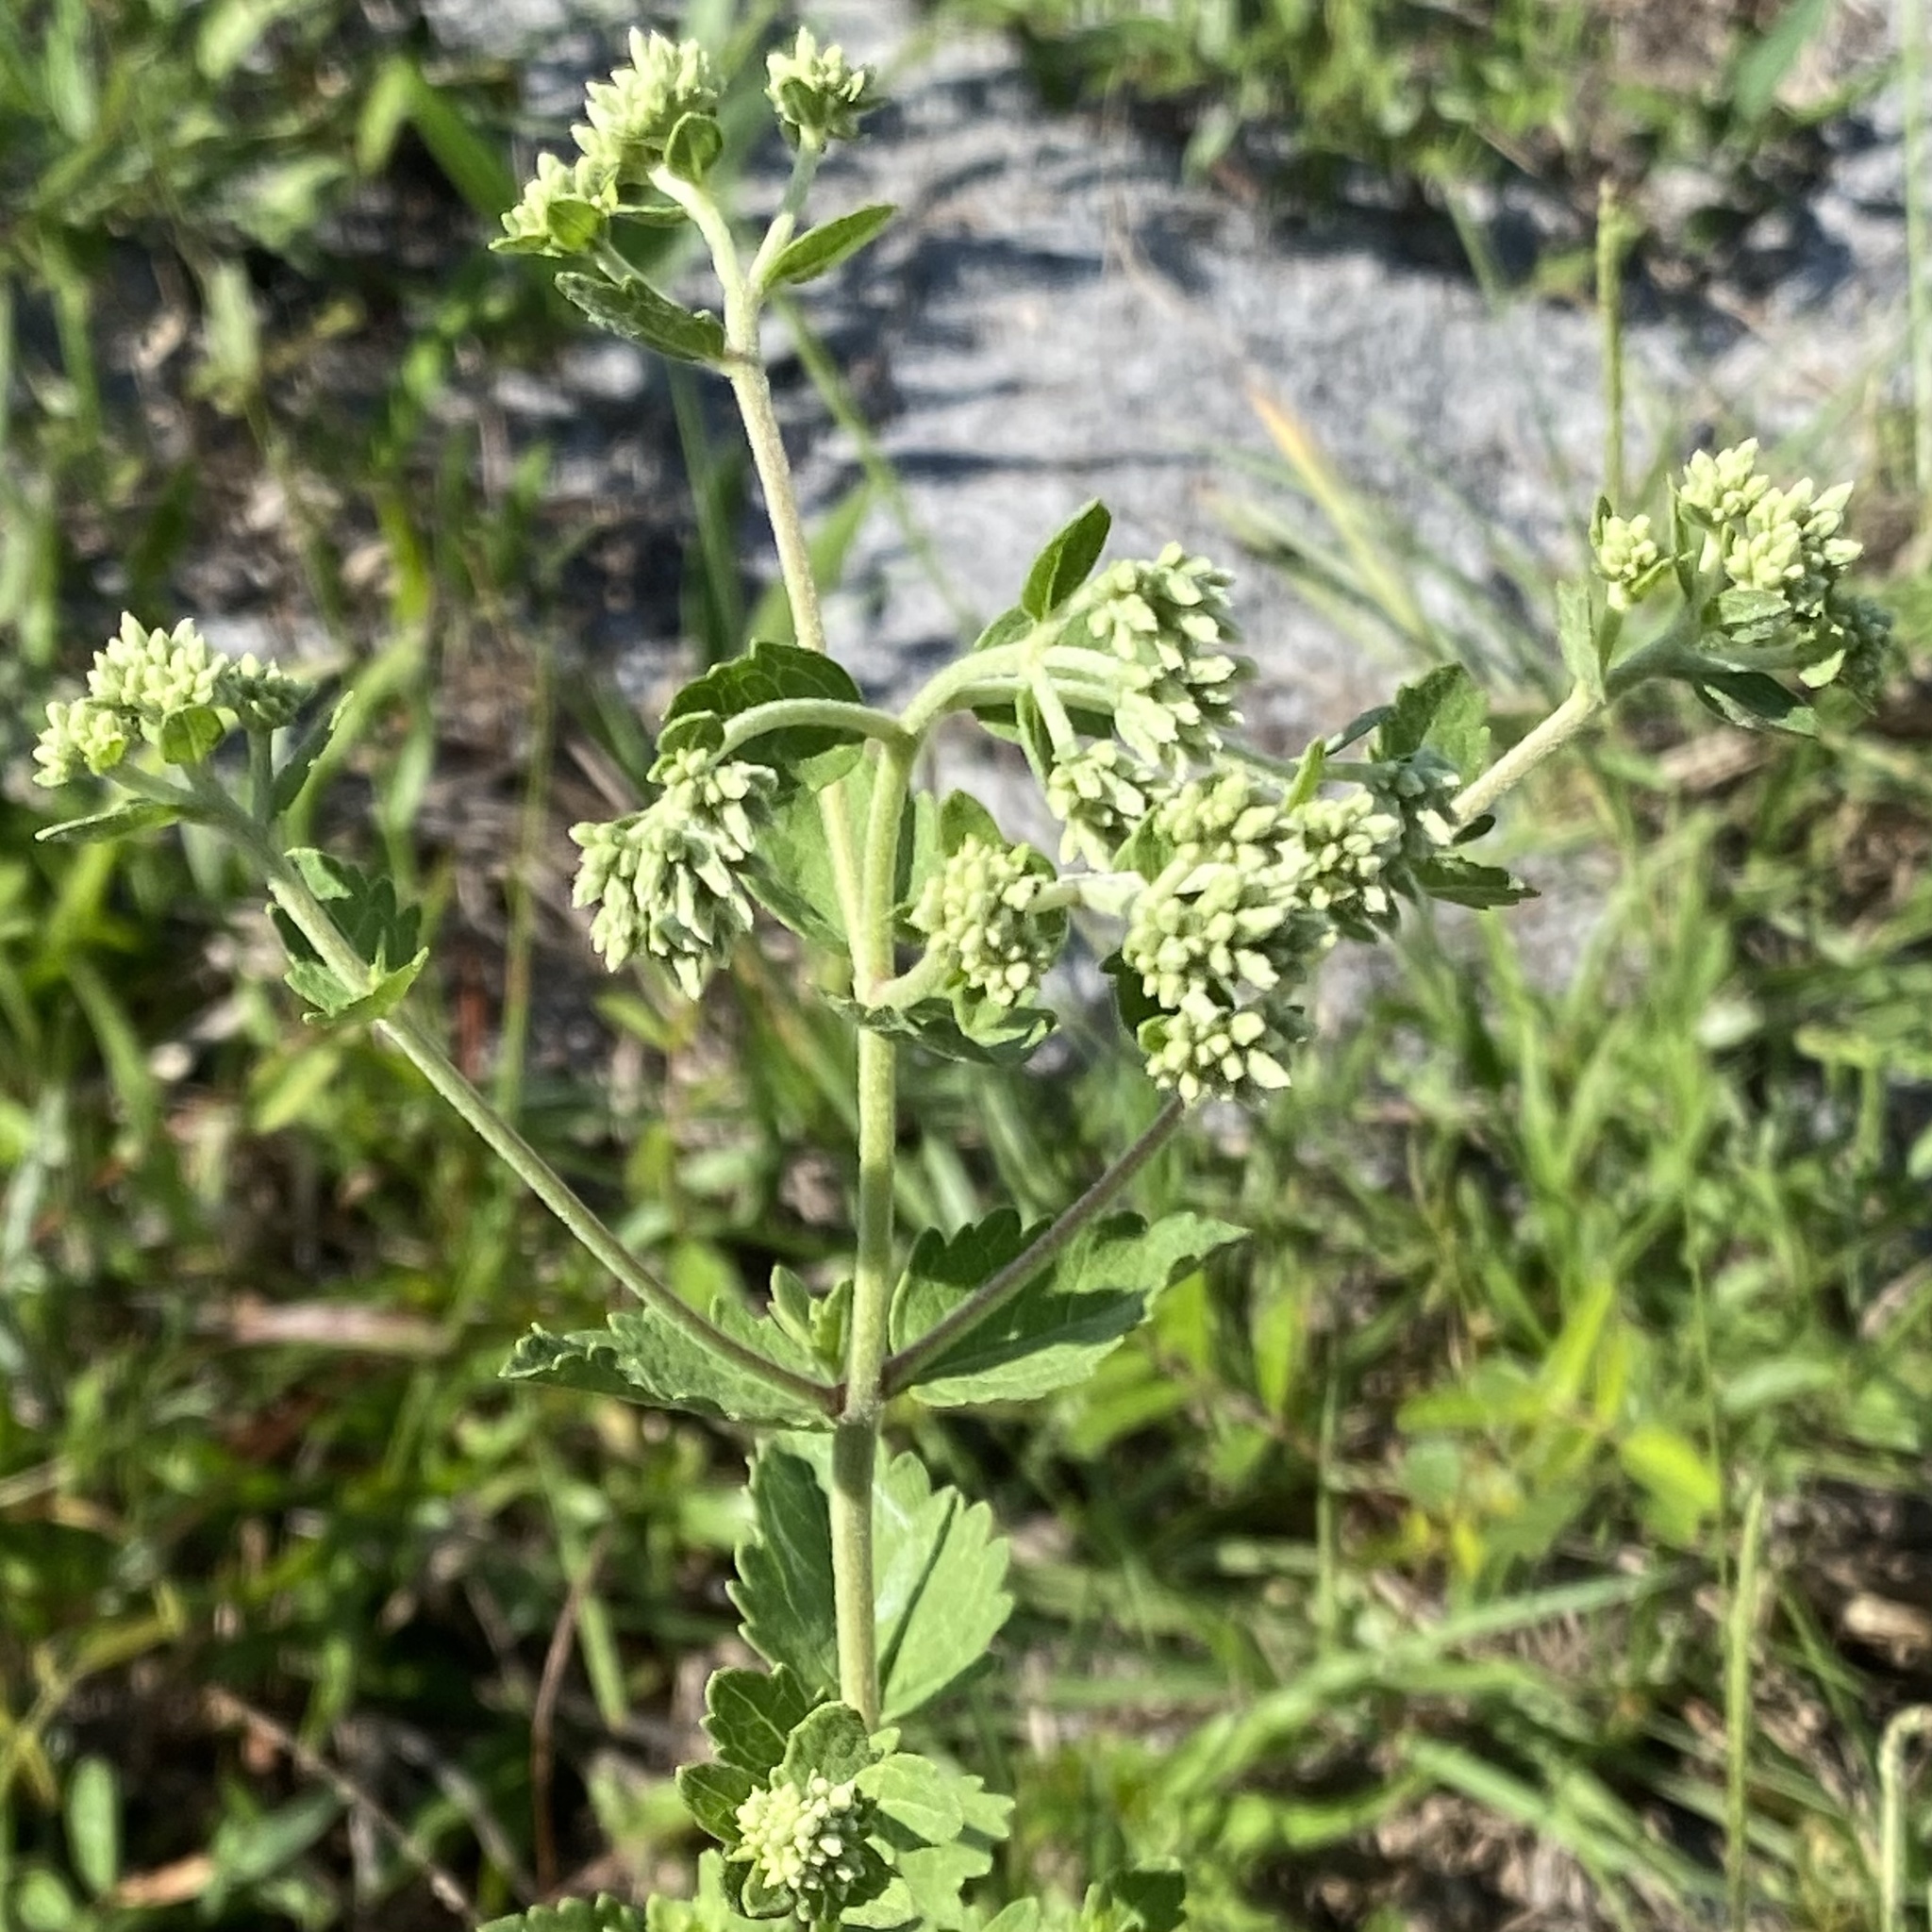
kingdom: Plantae
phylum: Tracheophyta
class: Magnoliopsida
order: Asterales
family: Asteraceae
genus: Eupatorium
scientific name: Eupatorium rotundifolium
